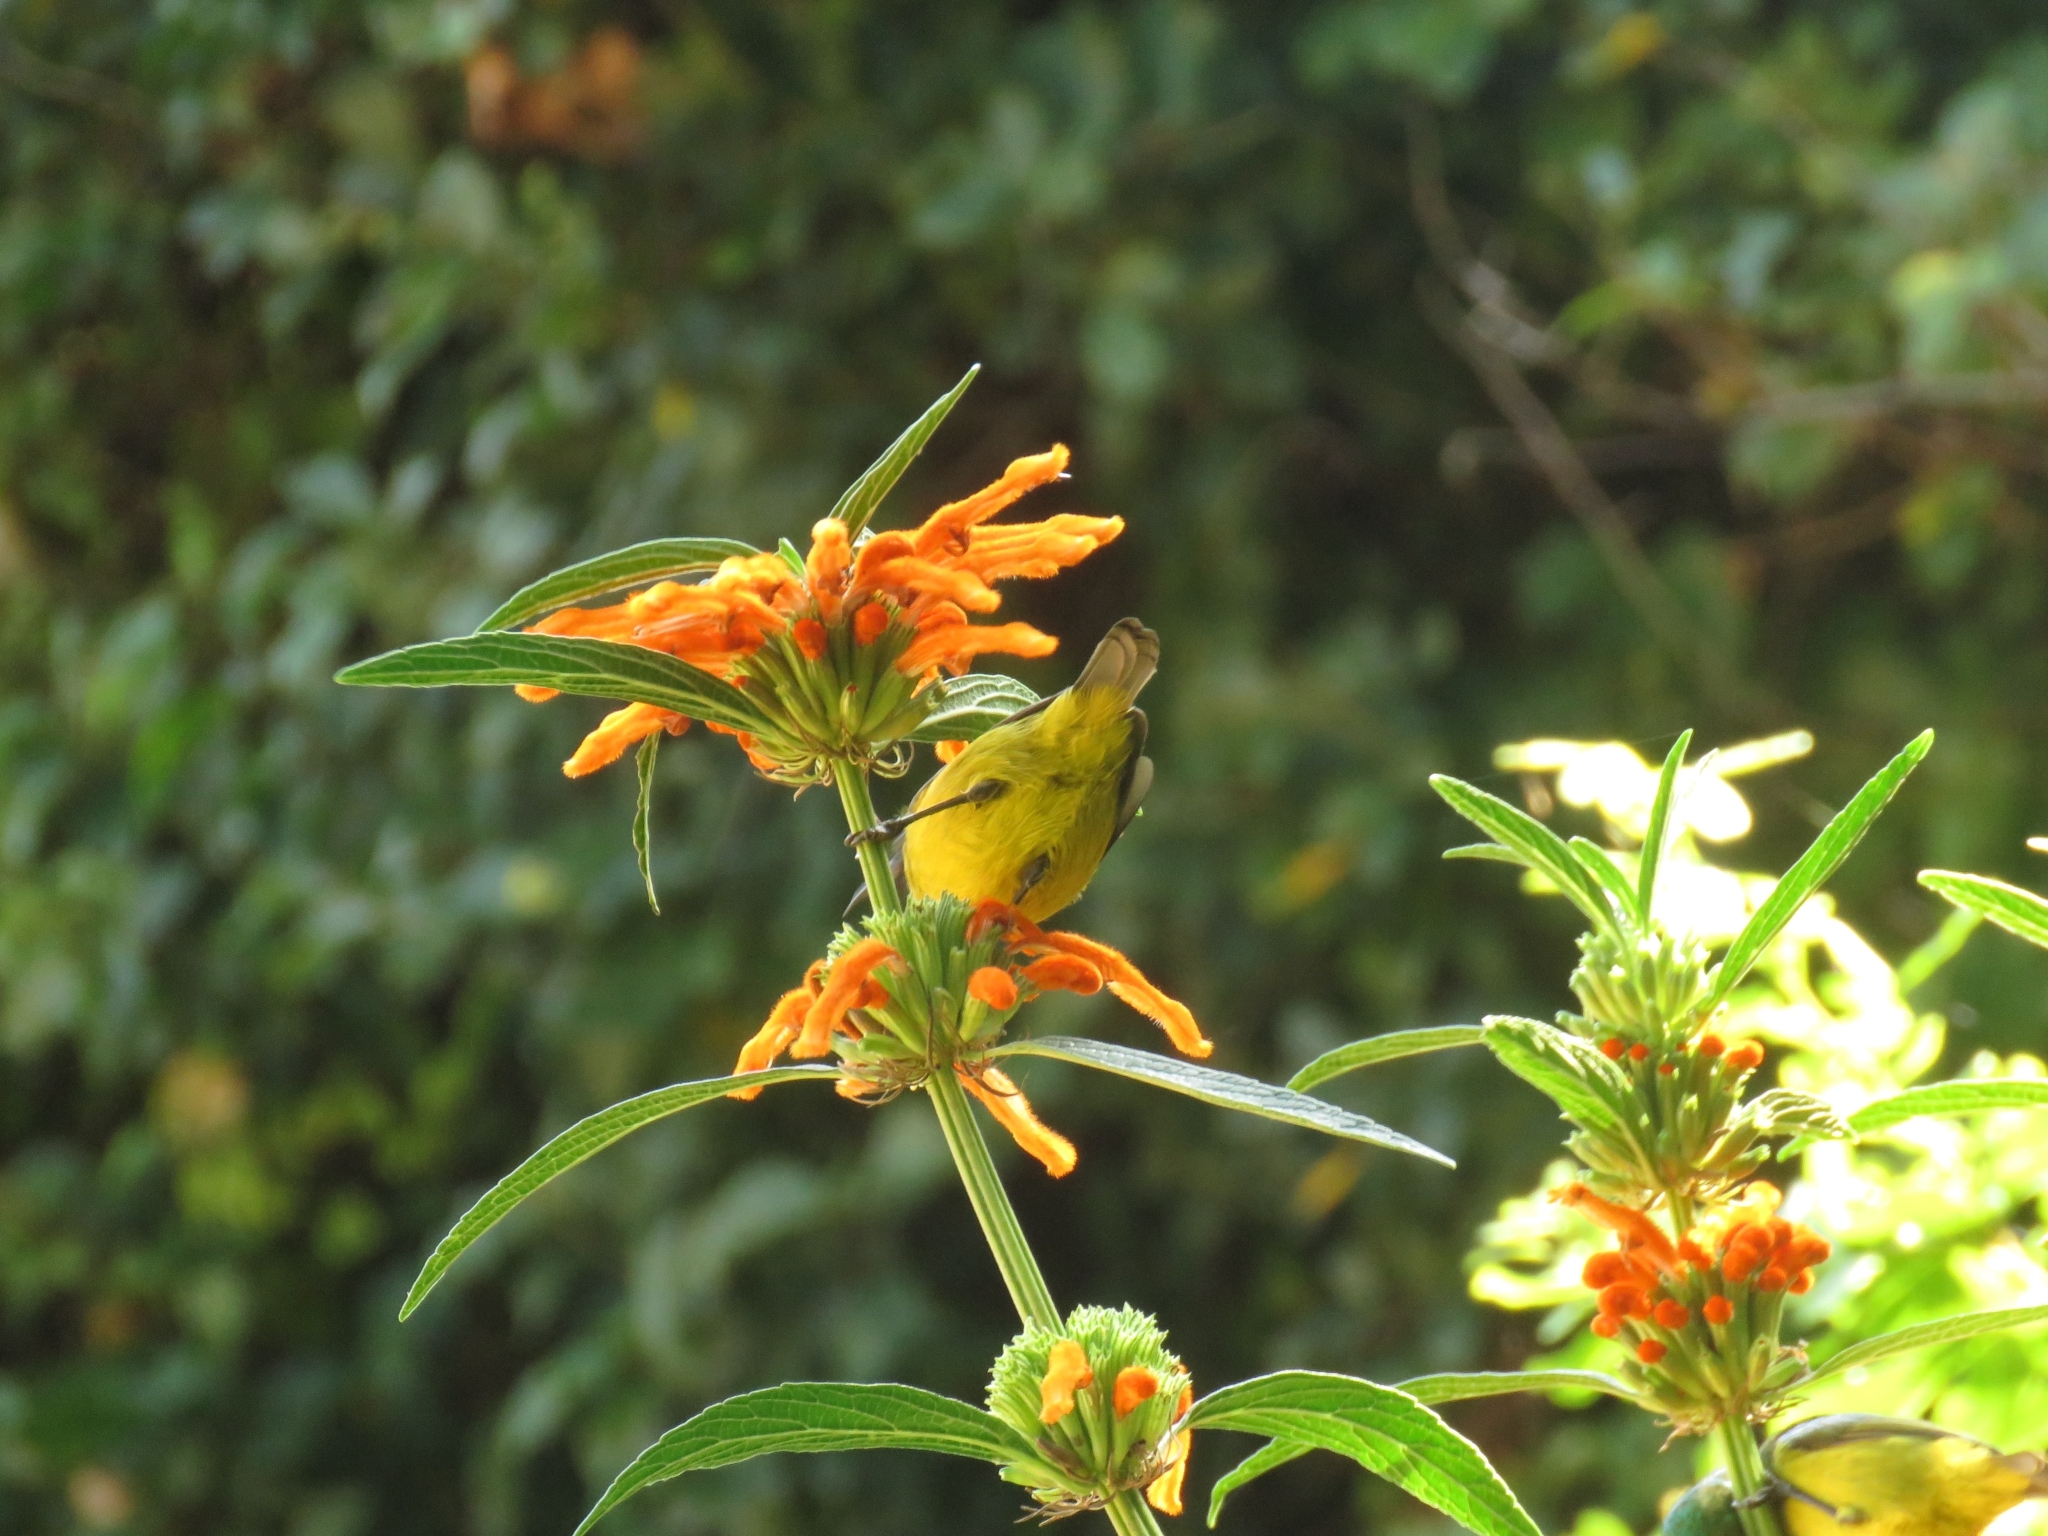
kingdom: Plantae
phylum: Tracheophyta
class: Magnoliopsida
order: Lamiales
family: Lamiaceae
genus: Leonotis
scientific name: Leonotis leonurus
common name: Lion's ear
